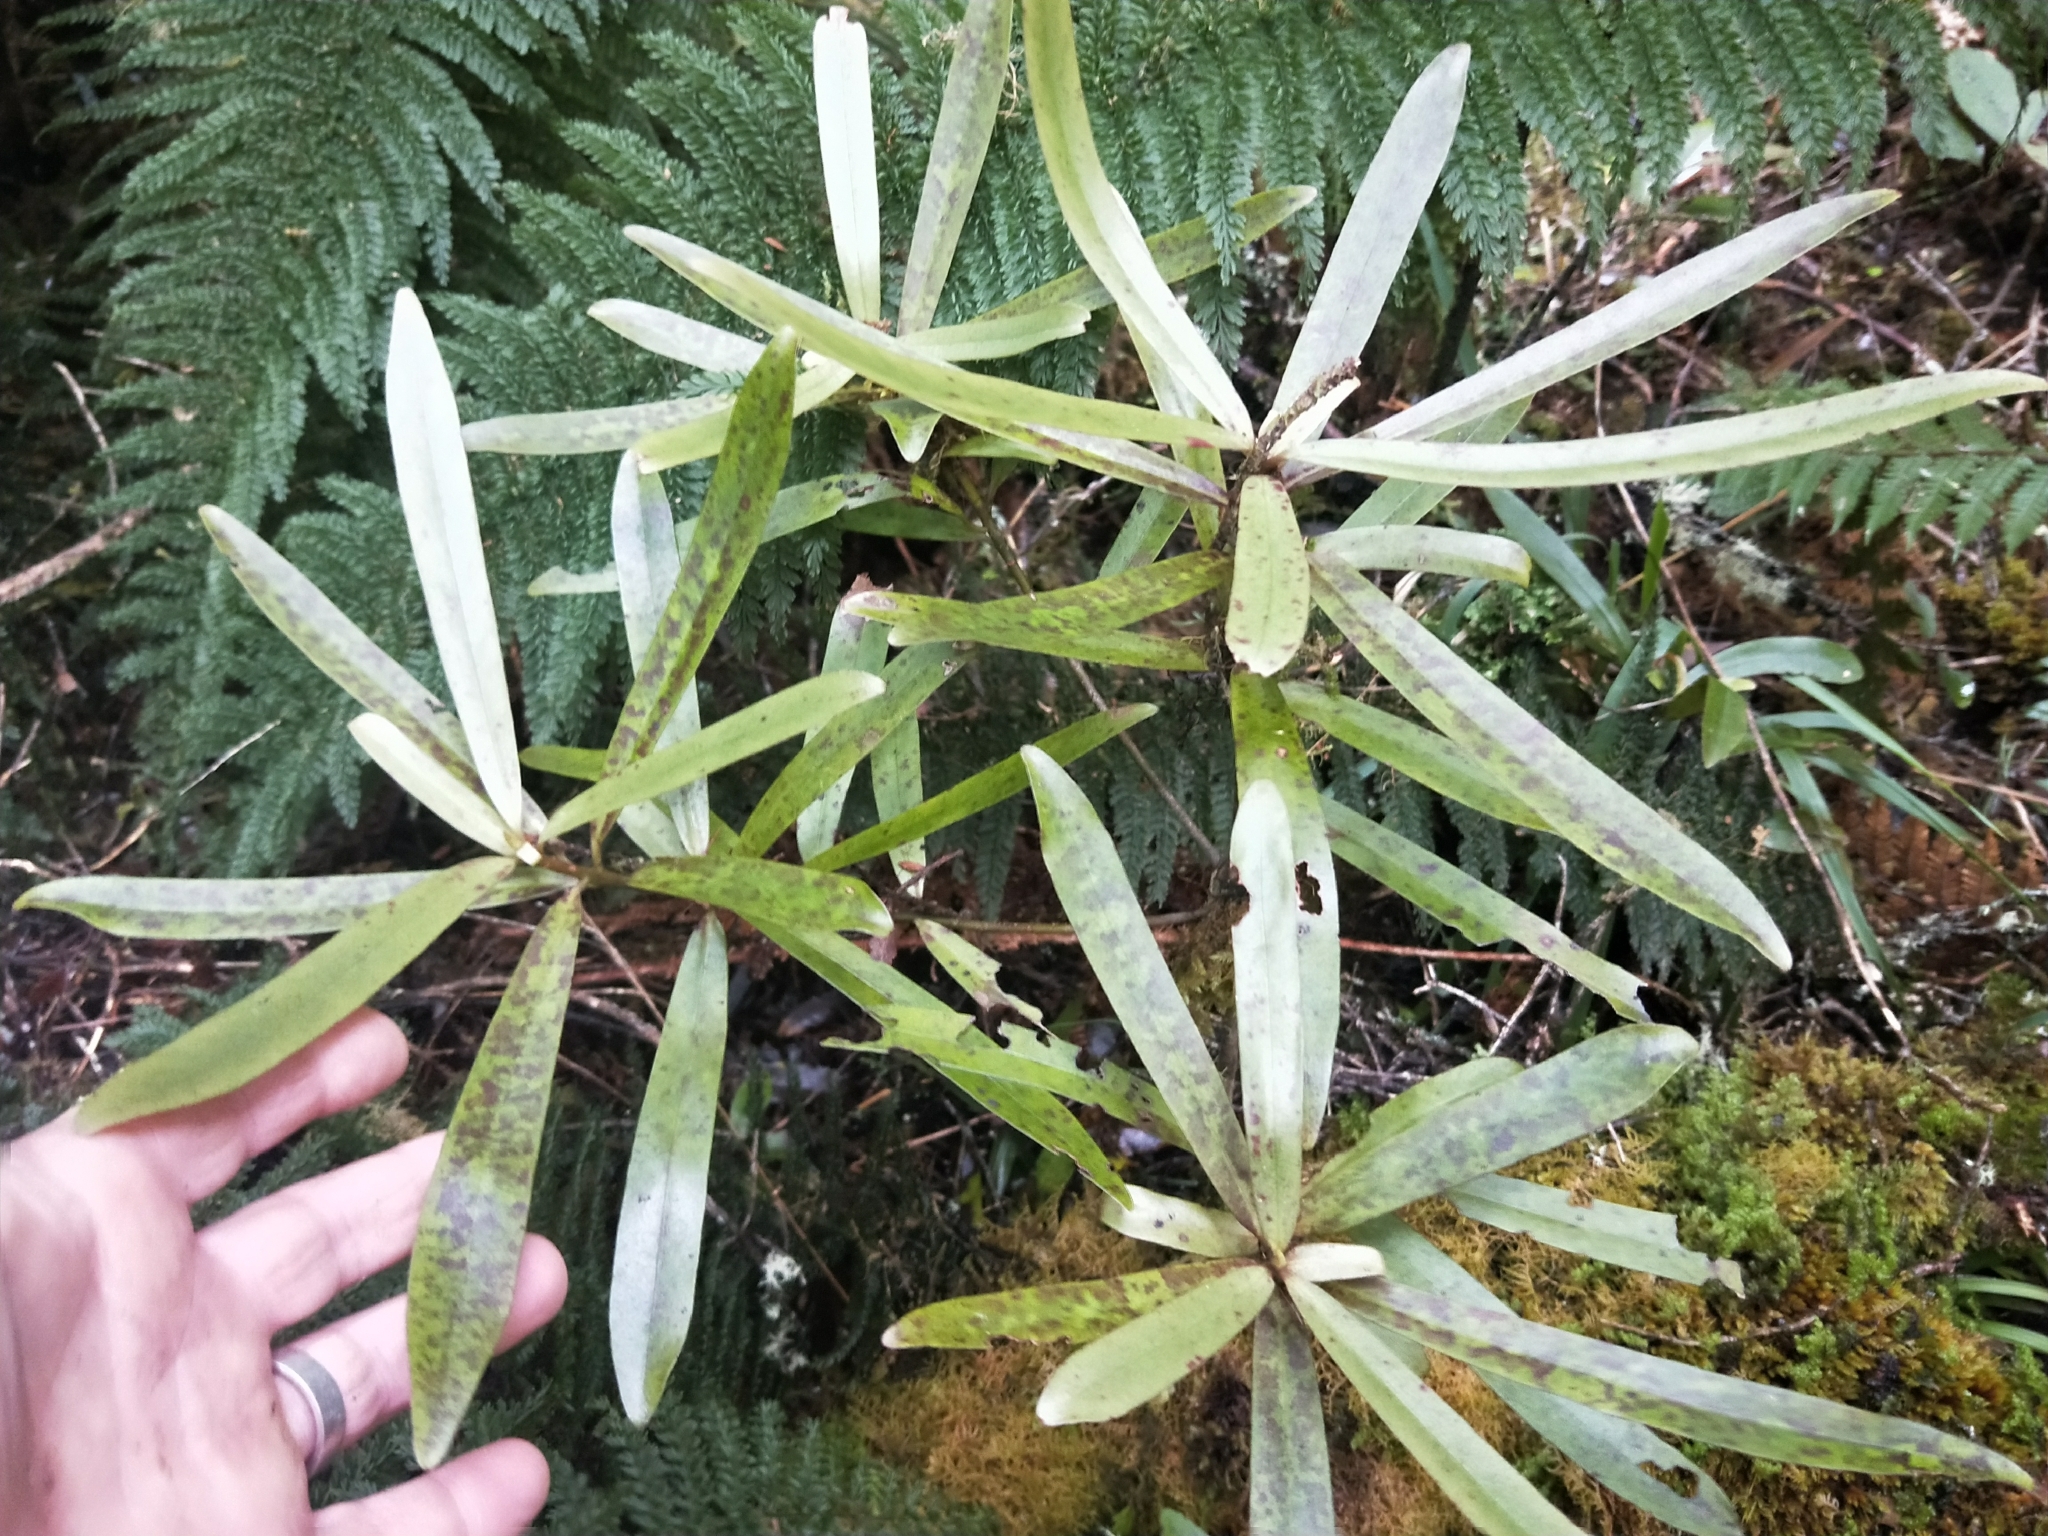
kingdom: Plantae
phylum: Tracheophyta
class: Magnoliopsida
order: Ericales
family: Primulaceae
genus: Myrsine
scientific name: Myrsine salicina
